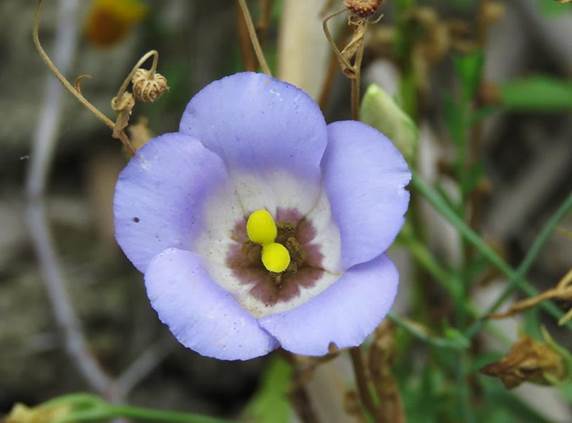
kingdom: Plantae
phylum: Tracheophyta
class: Magnoliopsida
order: Gentianales
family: Gentianaceae
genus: Eustoma
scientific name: Eustoma exaltatum
